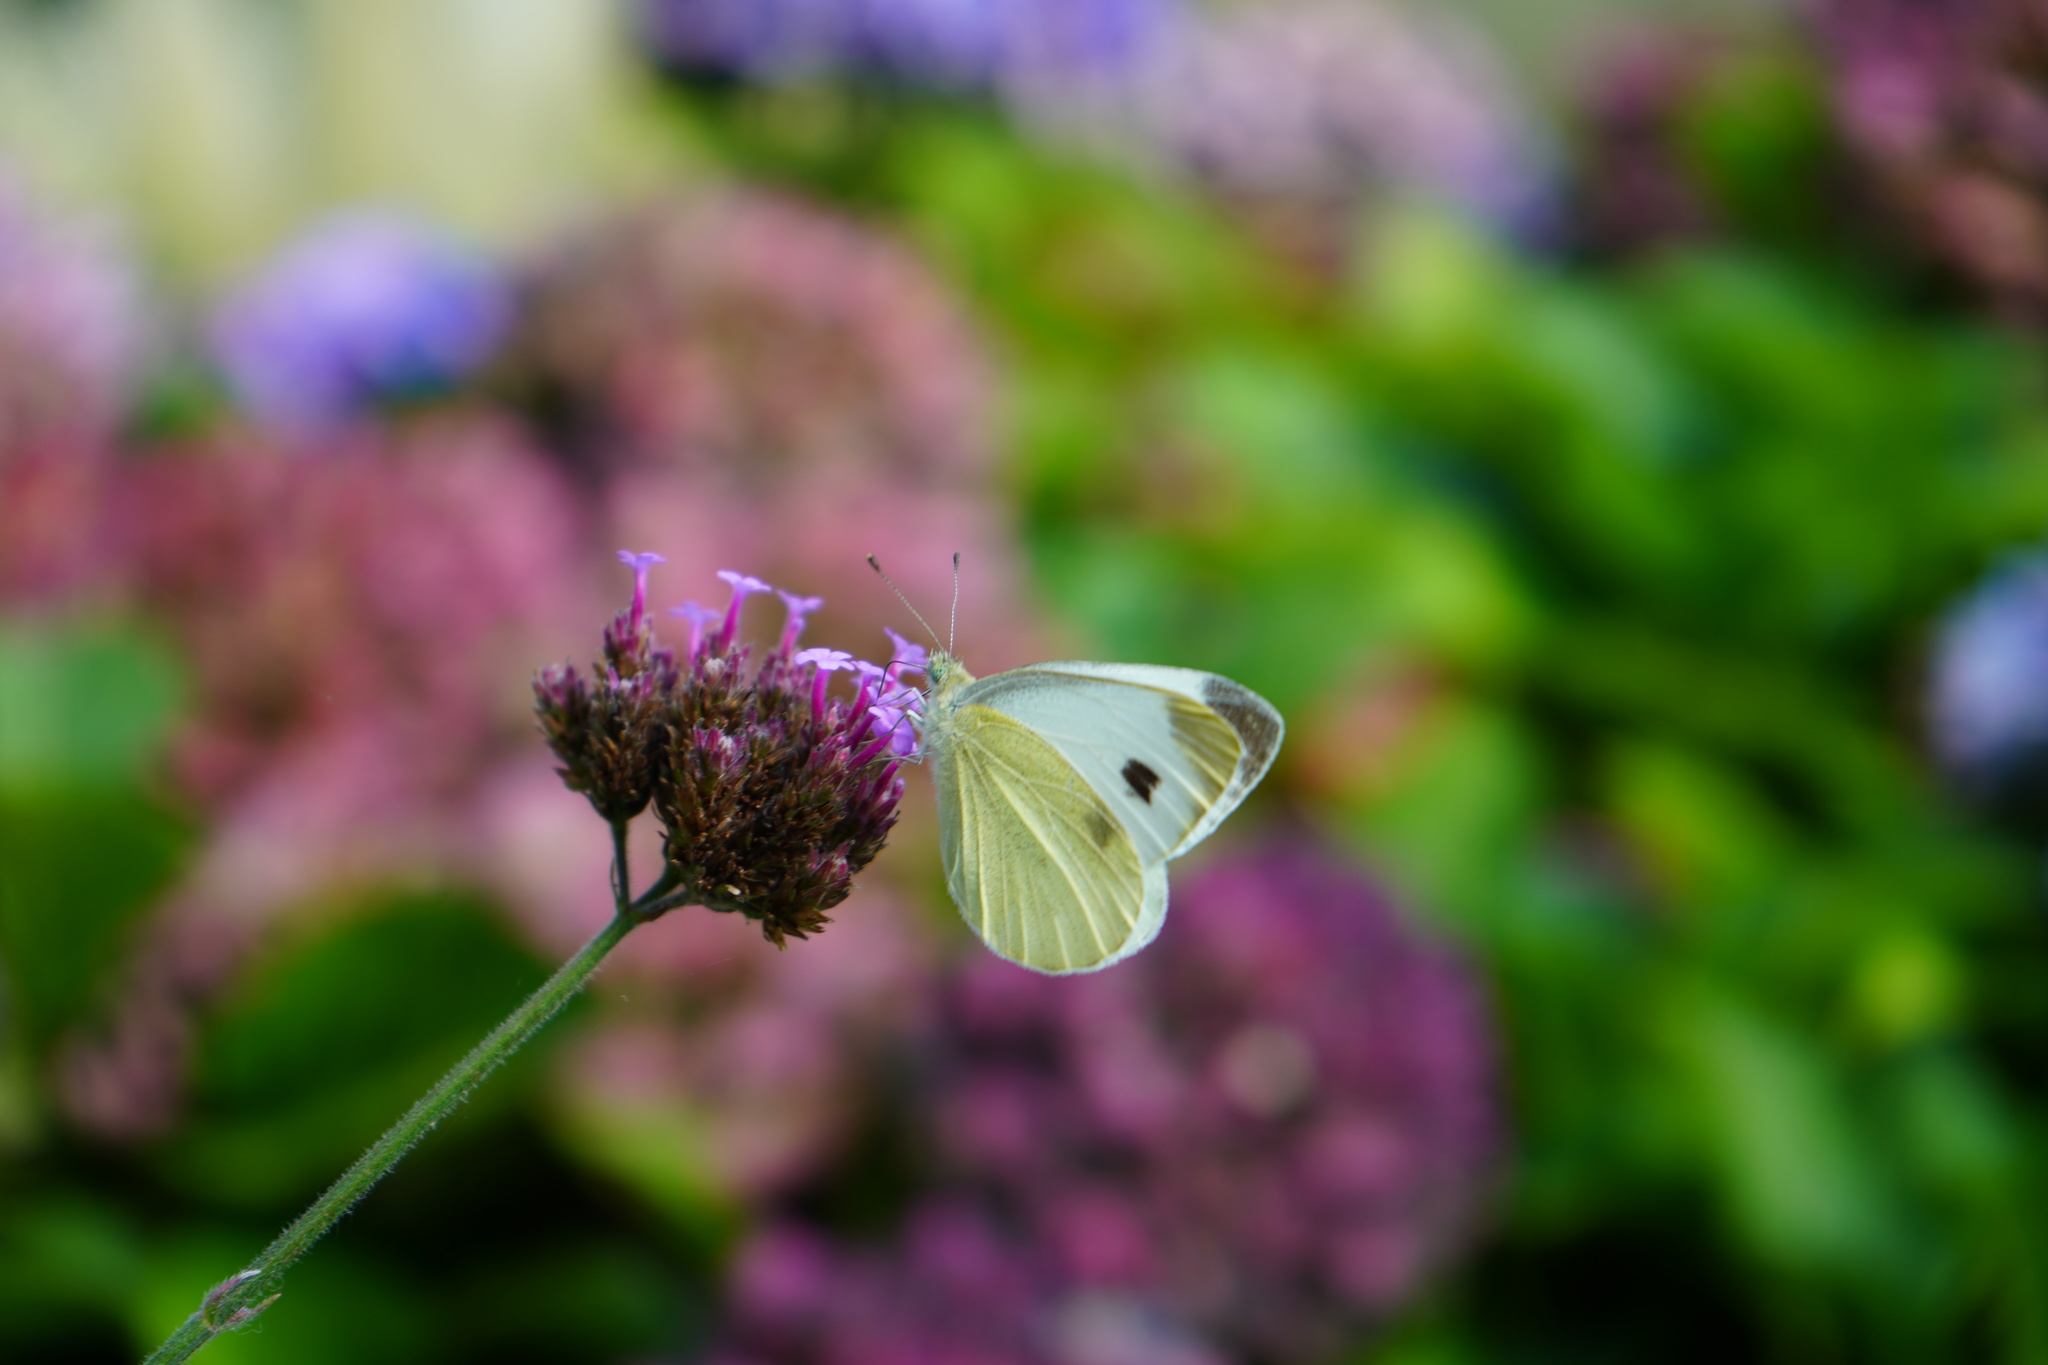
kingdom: Animalia
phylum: Arthropoda
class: Insecta
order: Lepidoptera
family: Pieridae
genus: Pieris
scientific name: Pieris mannii
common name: Southern small white
